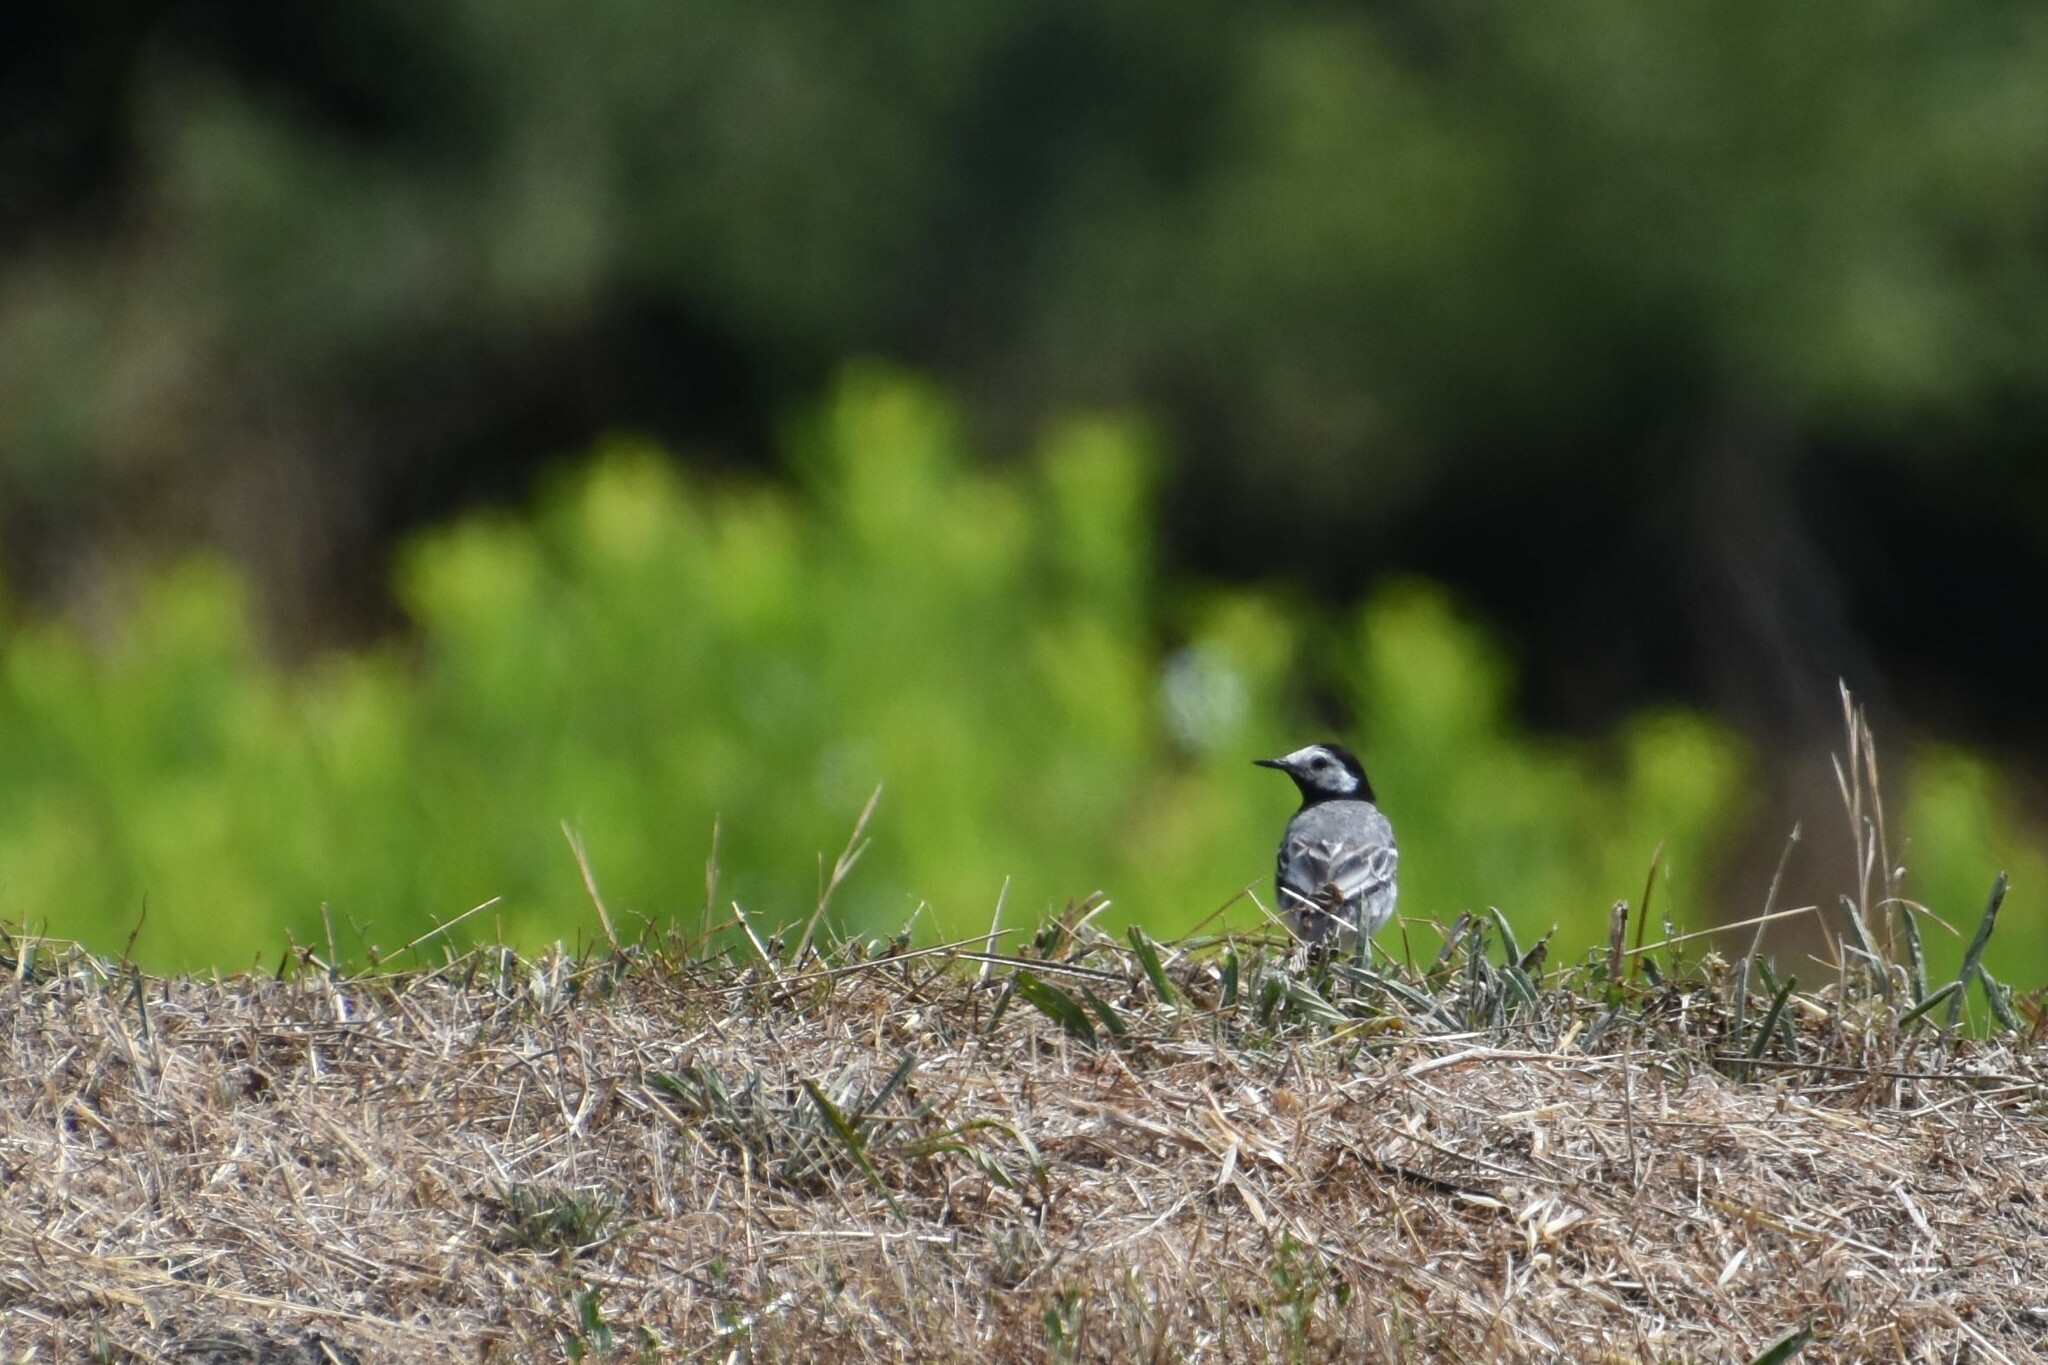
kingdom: Animalia
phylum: Chordata
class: Aves
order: Passeriformes
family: Motacillidae
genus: Motacilla
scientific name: Motacilla alba
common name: White wagtail
